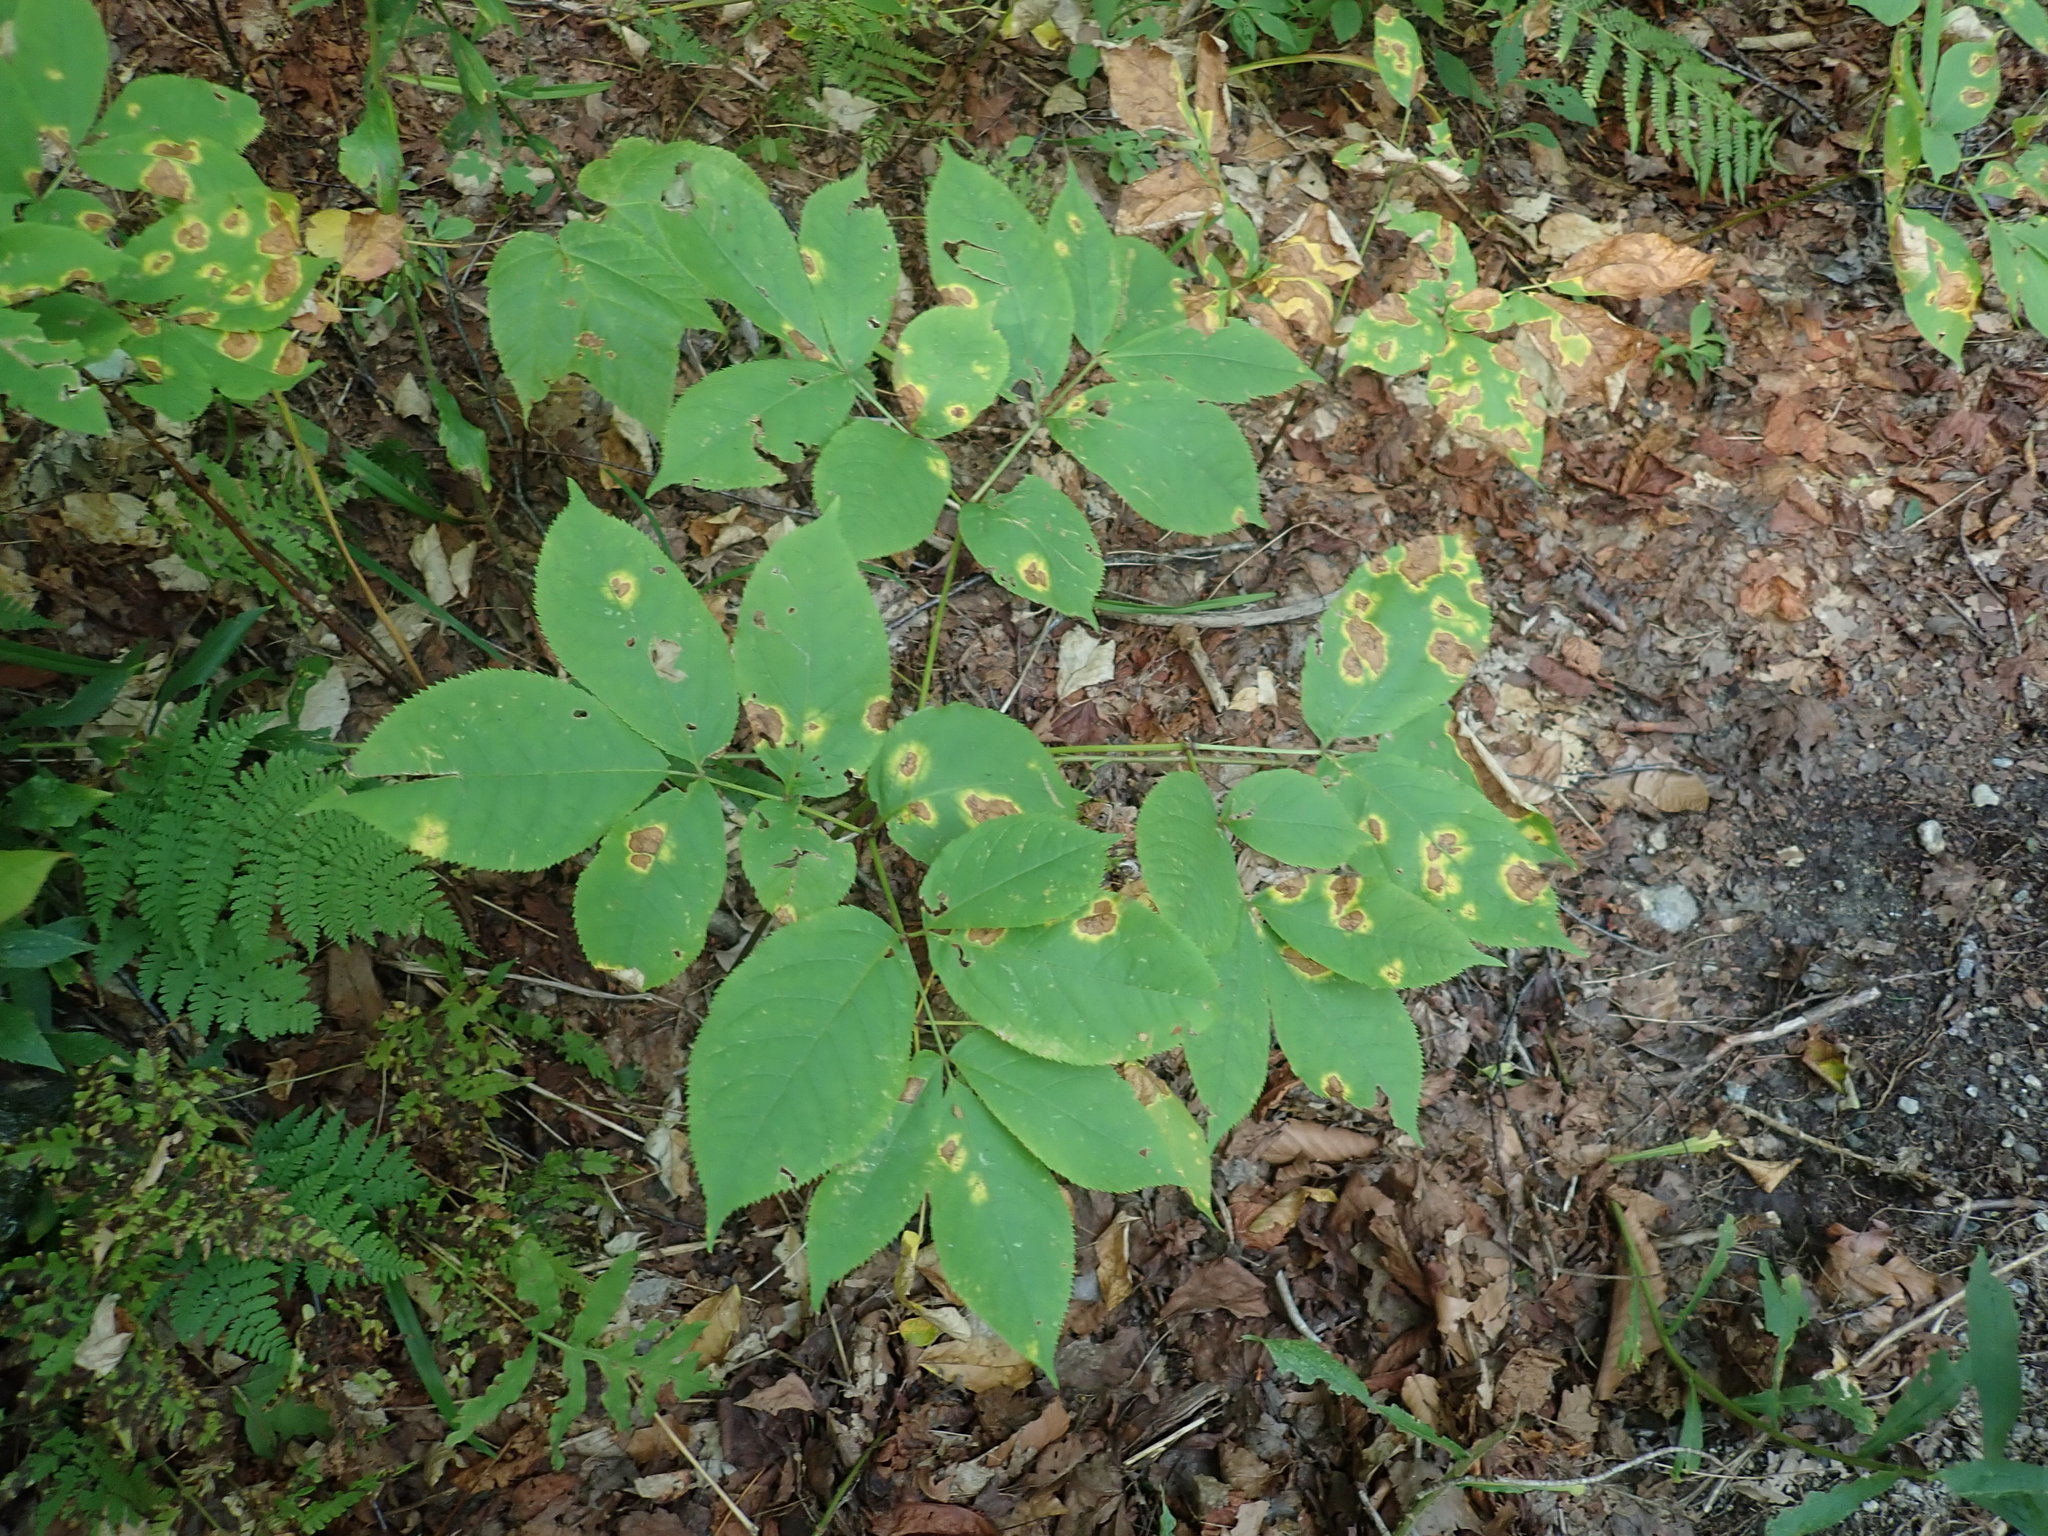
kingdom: Plantae
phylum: Tracheophyta
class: Magnoliopsida
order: Apiales
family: Araliaceae
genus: Aralia
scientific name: Aralia nudicaulis
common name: Wild sarsaparilla
